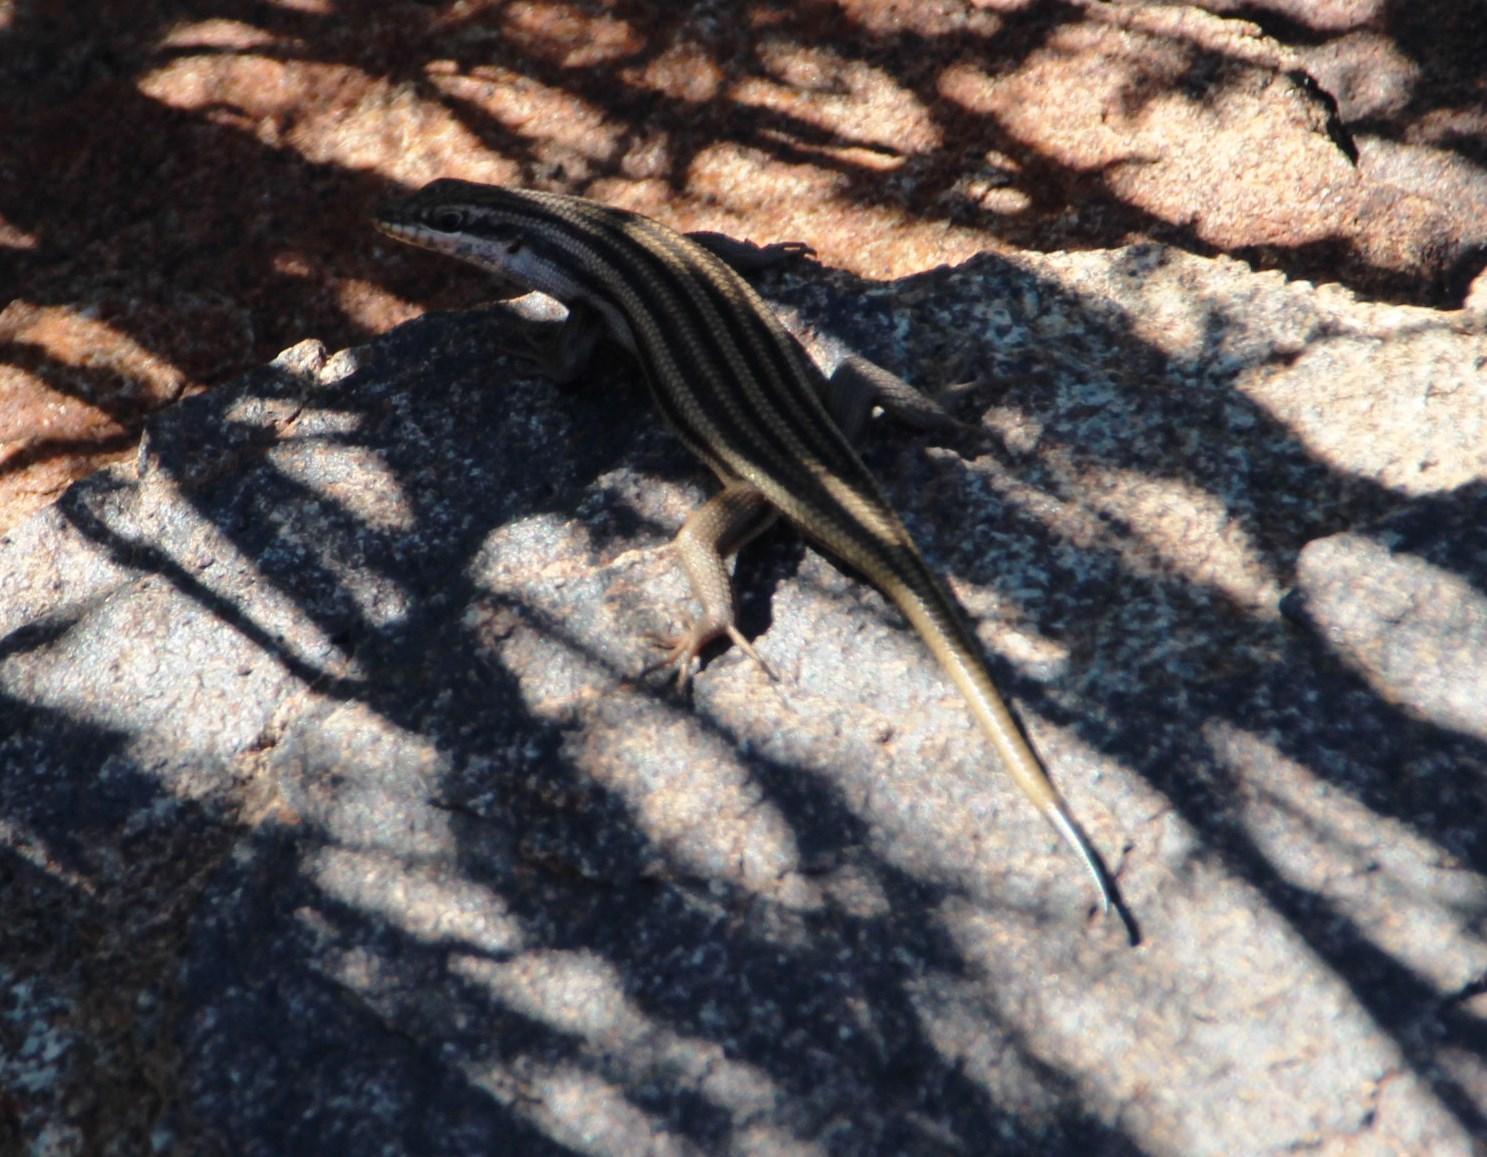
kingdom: Animalia
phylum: Chordata
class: Squamata
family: Scincidae
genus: Trachylepis
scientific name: Trachylepis sulcata
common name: Western rock skink
